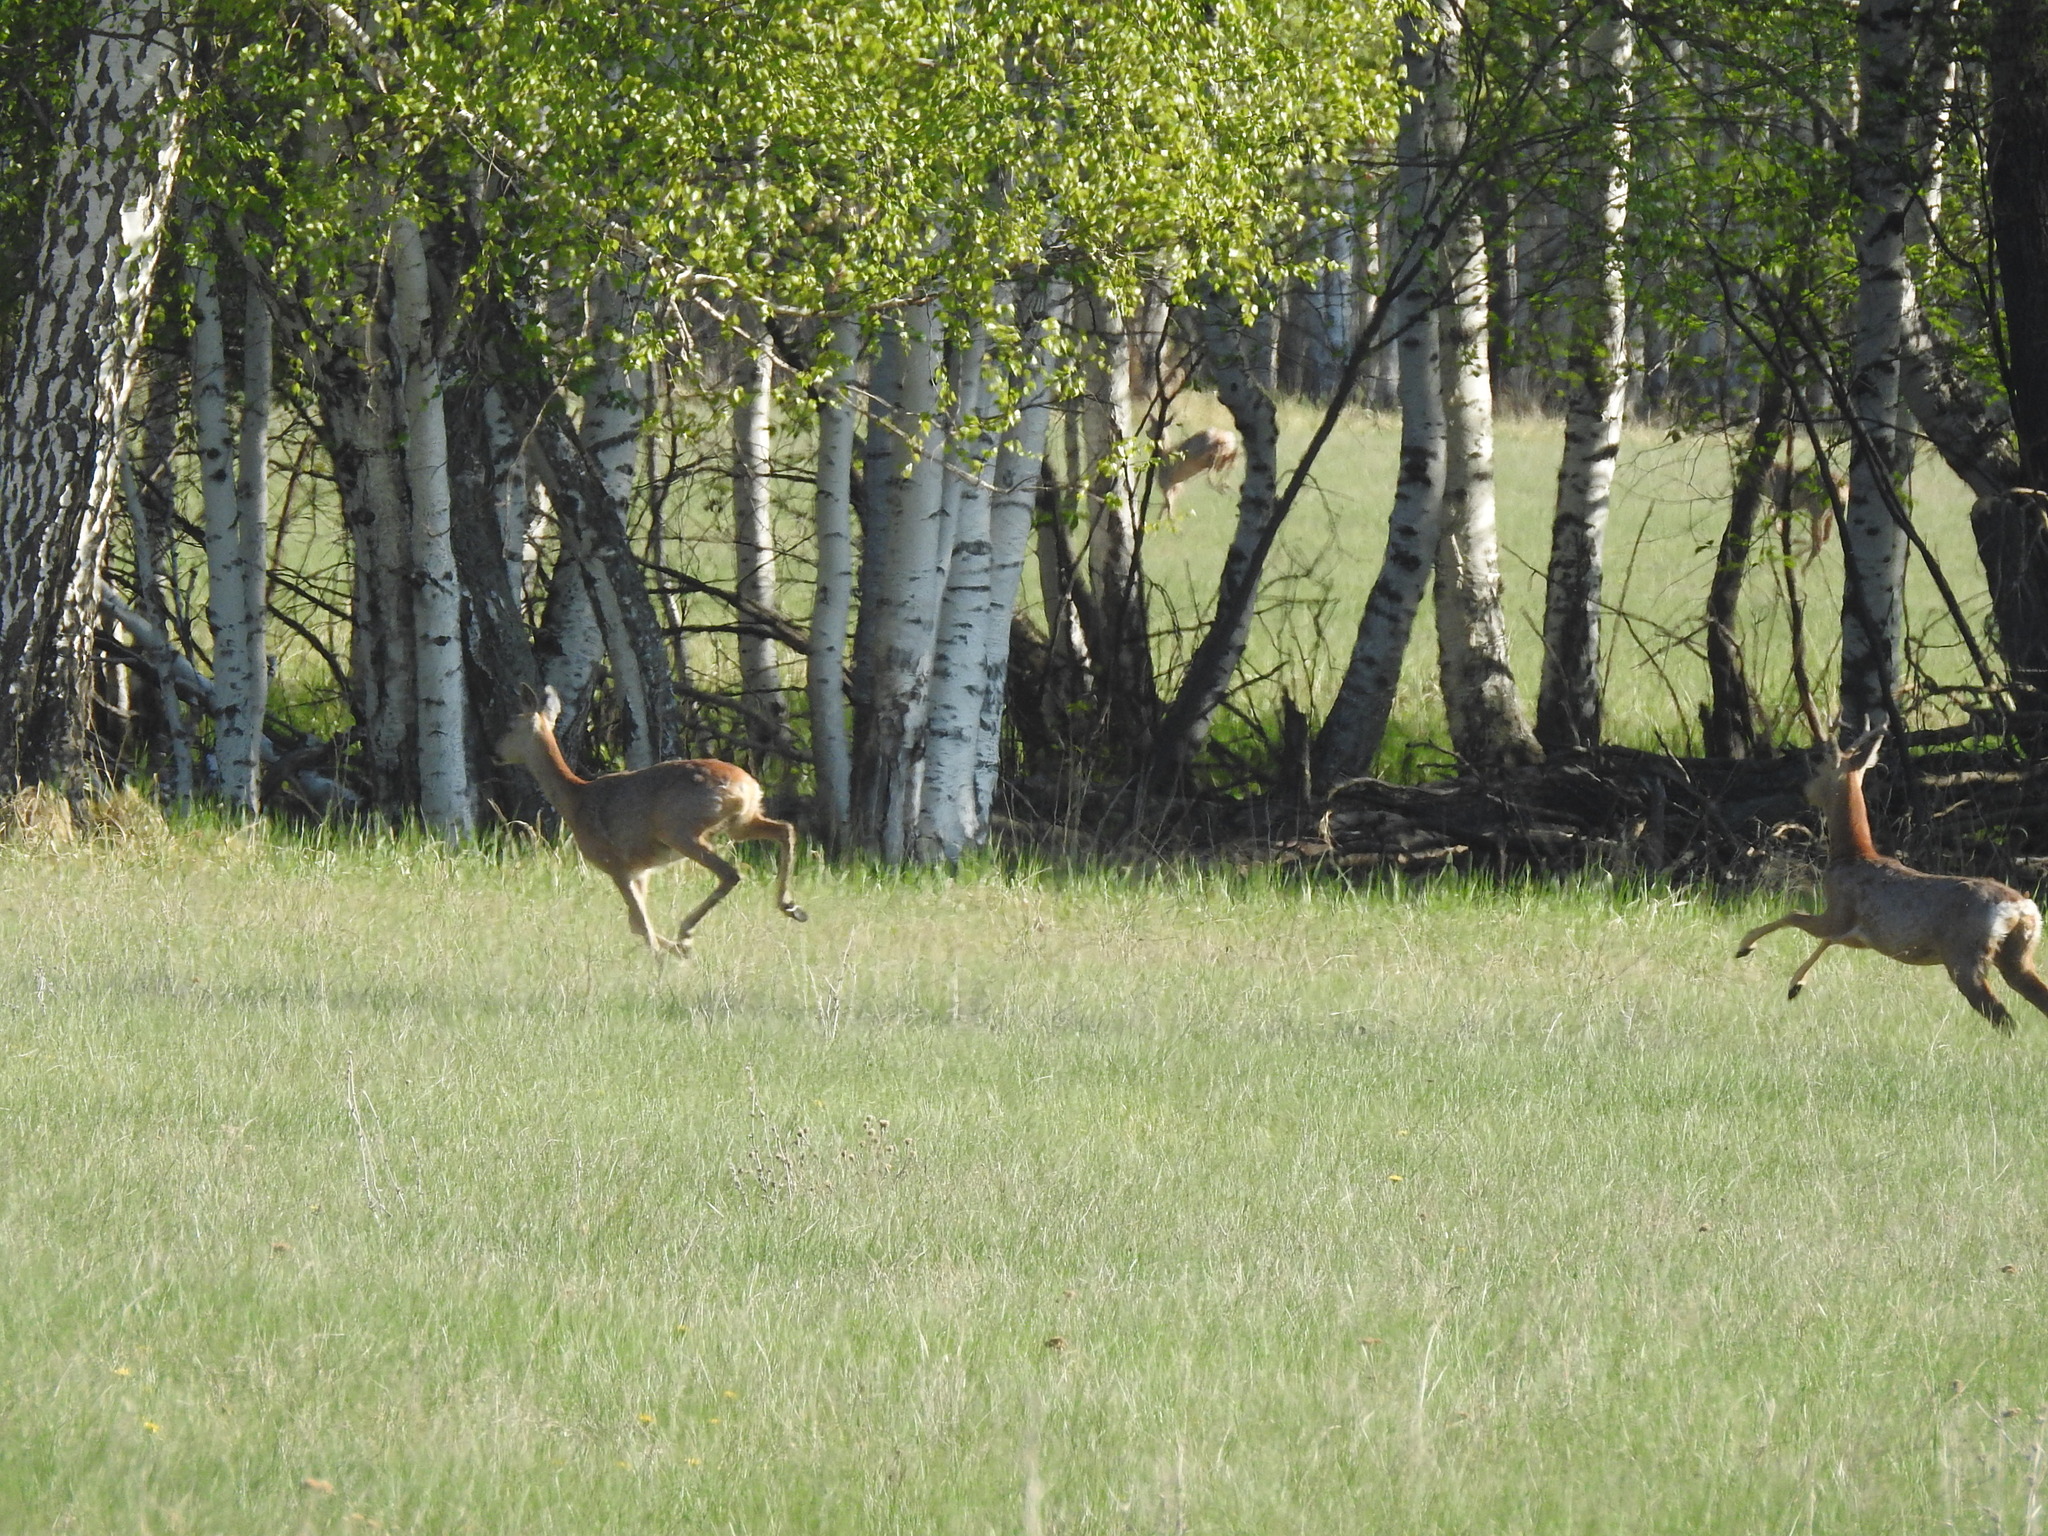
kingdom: Animalia
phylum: Chordata
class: Mammalia
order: Artiodactyla
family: Cervidae
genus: Capreolus
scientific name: Capreolus pygargus
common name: Siberian roe
